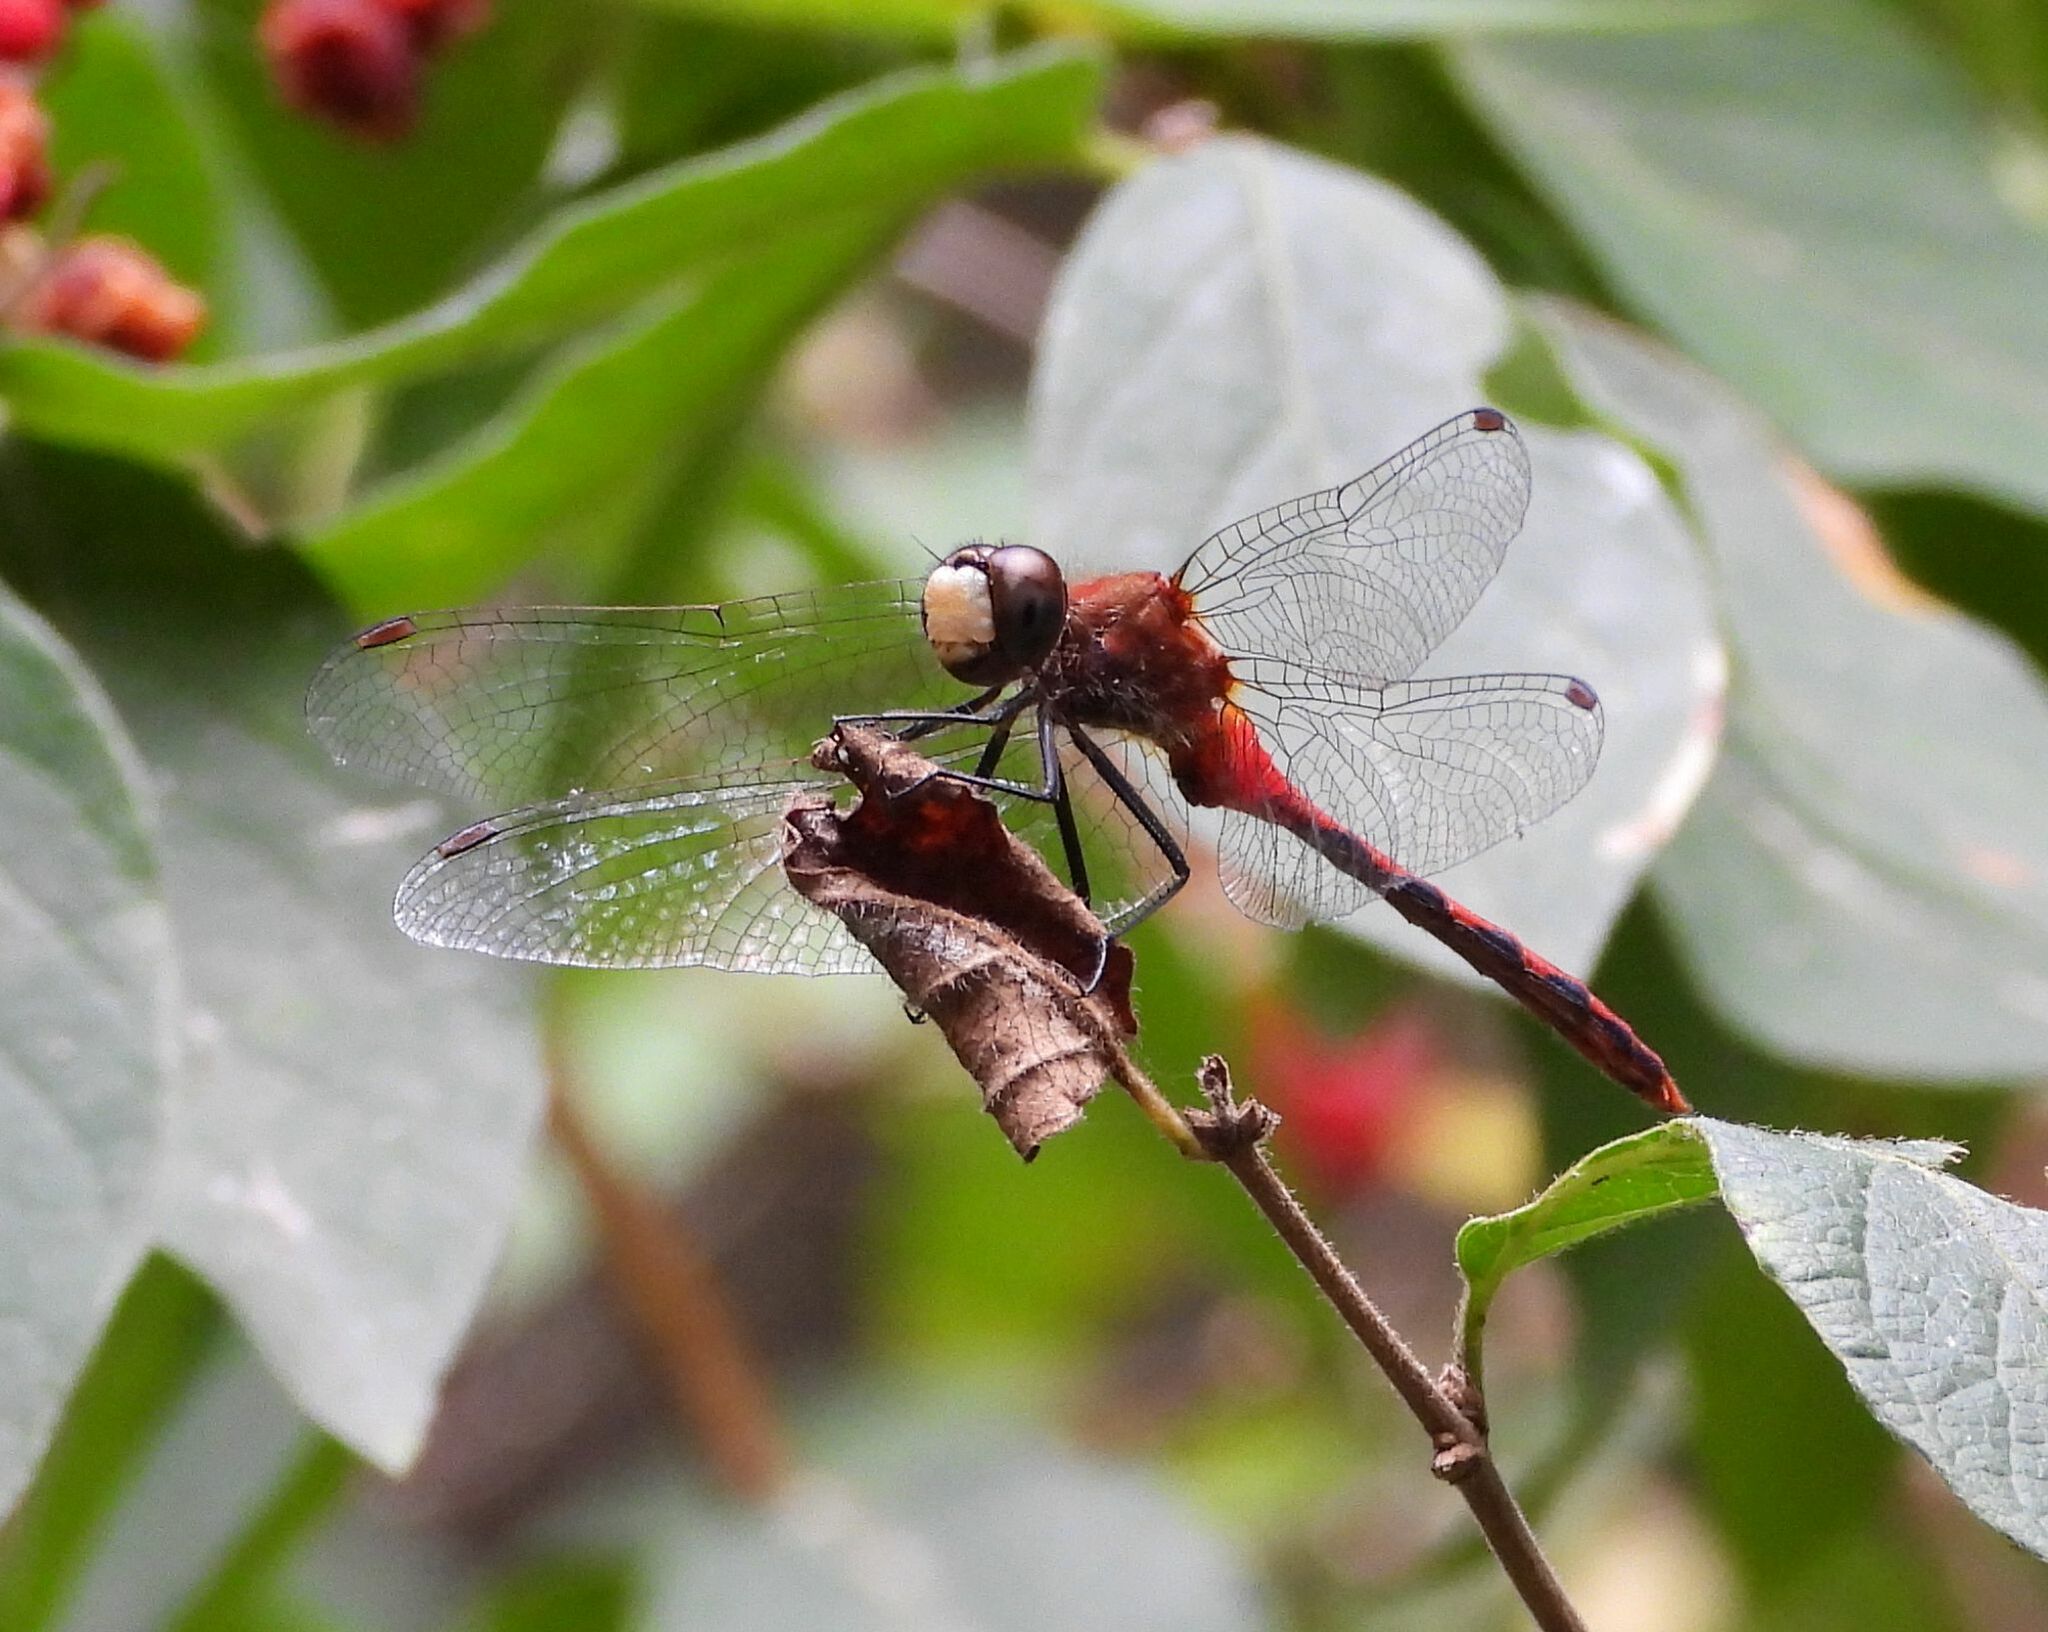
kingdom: Animalia
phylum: Arthropoda
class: Insecta
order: Odonata
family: Libellulidae
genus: Sympetrum
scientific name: Sympetrum obtrusum
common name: White-faced meadowhawk
